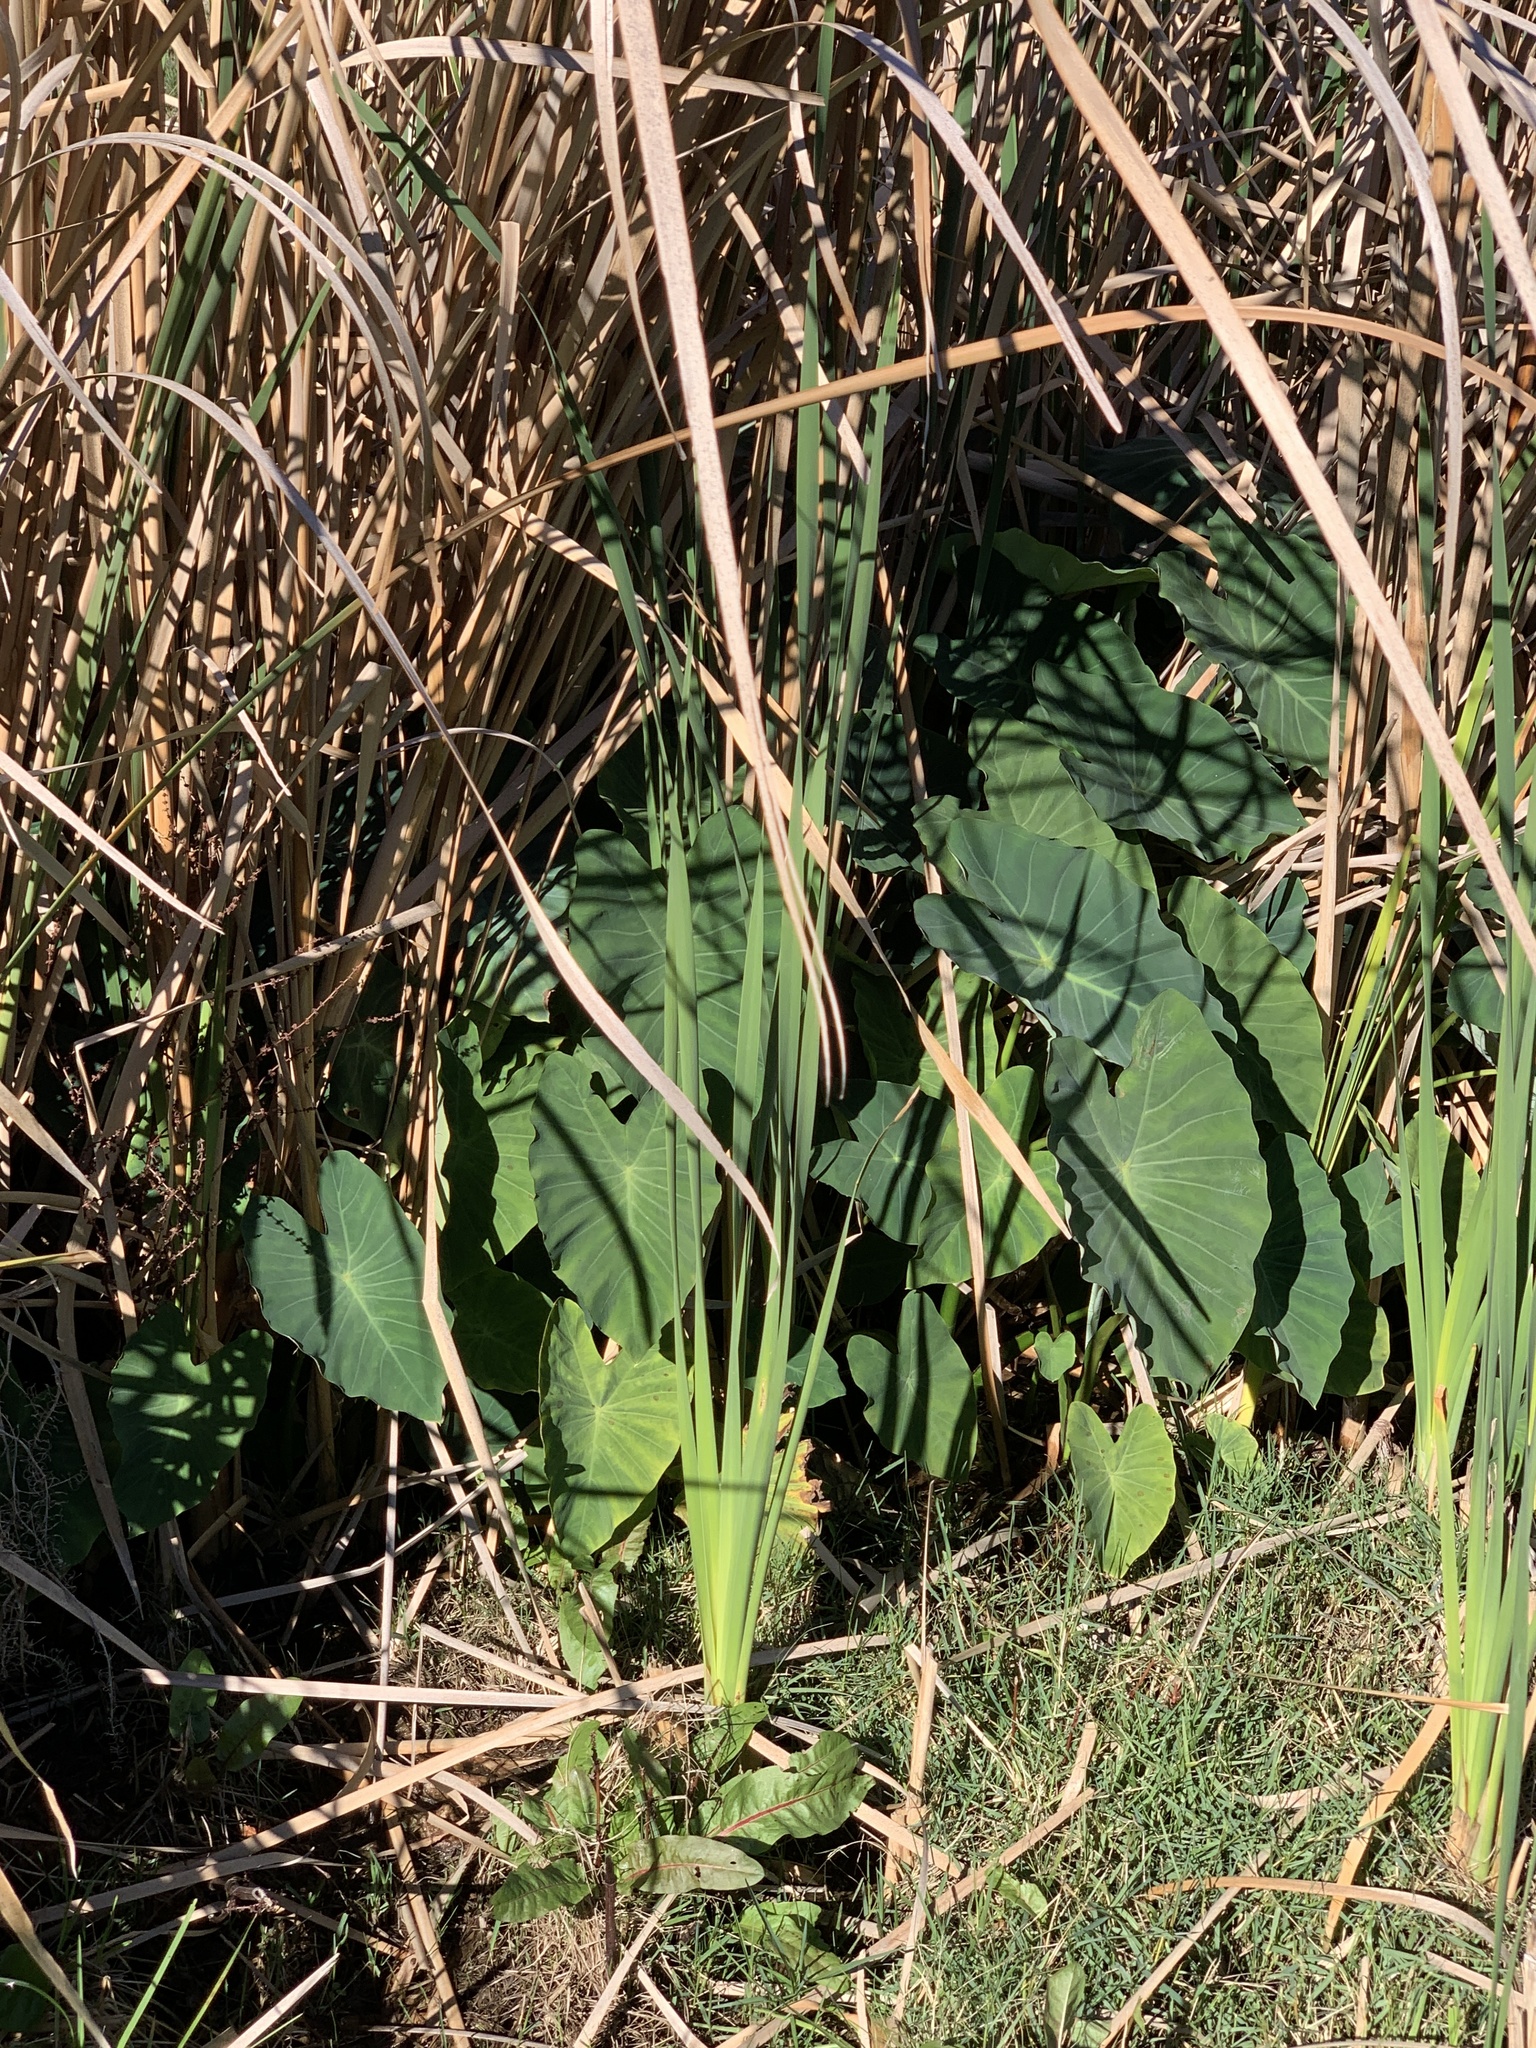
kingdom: Plantae
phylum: Tracheophyta
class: Liliopsida
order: Alismatales
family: Araceae
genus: Colocasia
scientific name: Colocasia esculenta
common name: Taro
